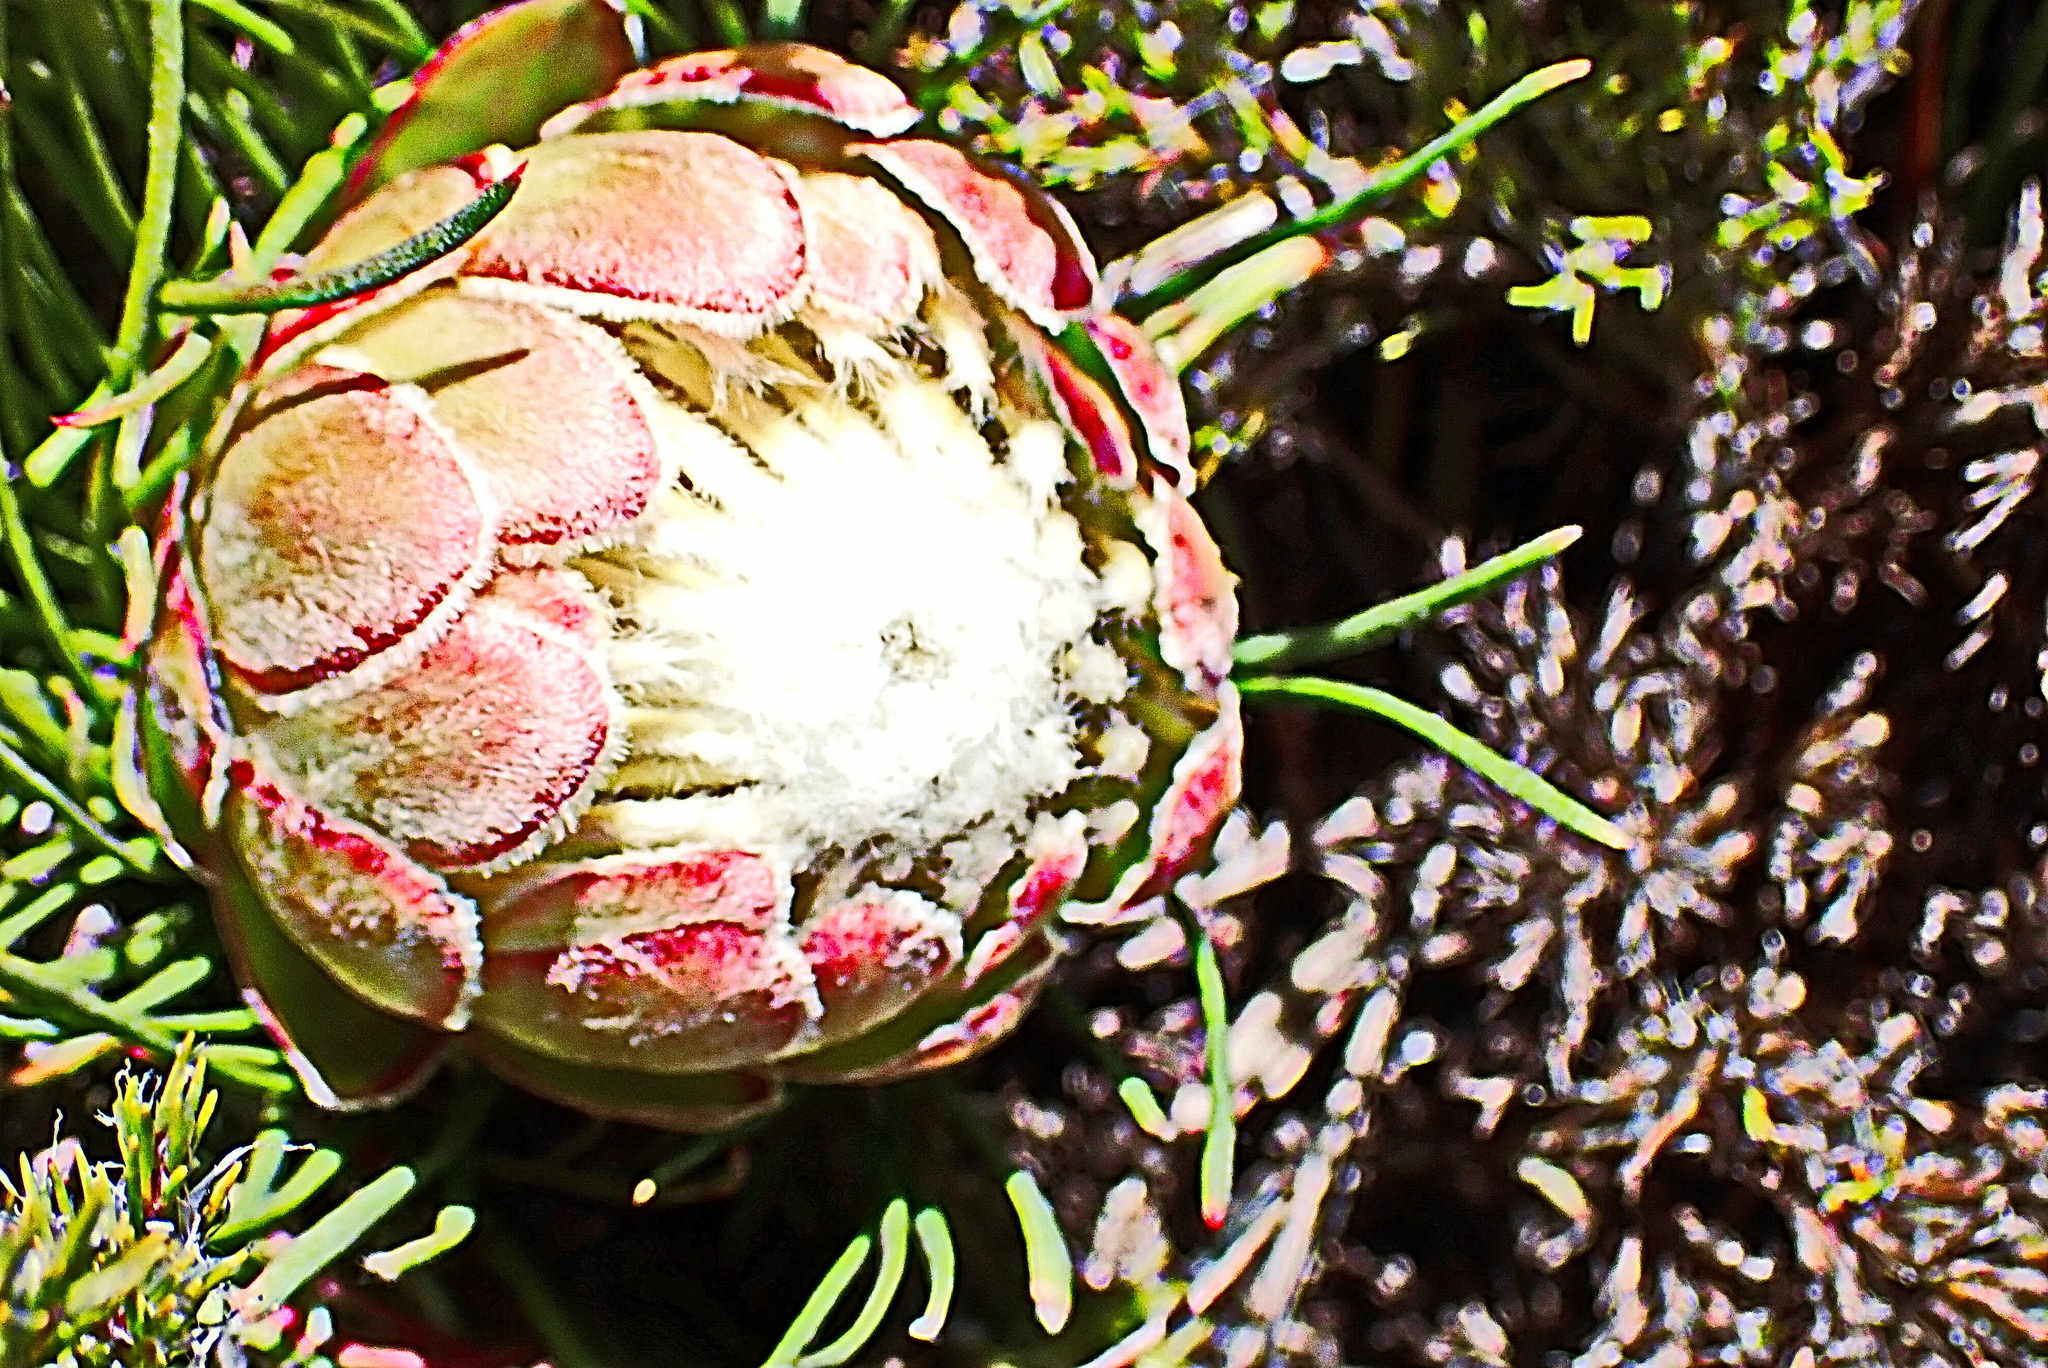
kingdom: Plantae
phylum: Tracheophyta
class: Magnoliopsida
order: Proteales
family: Proteaceae
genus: Protea
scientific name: Protea montana
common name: Swartberg sugarbush
